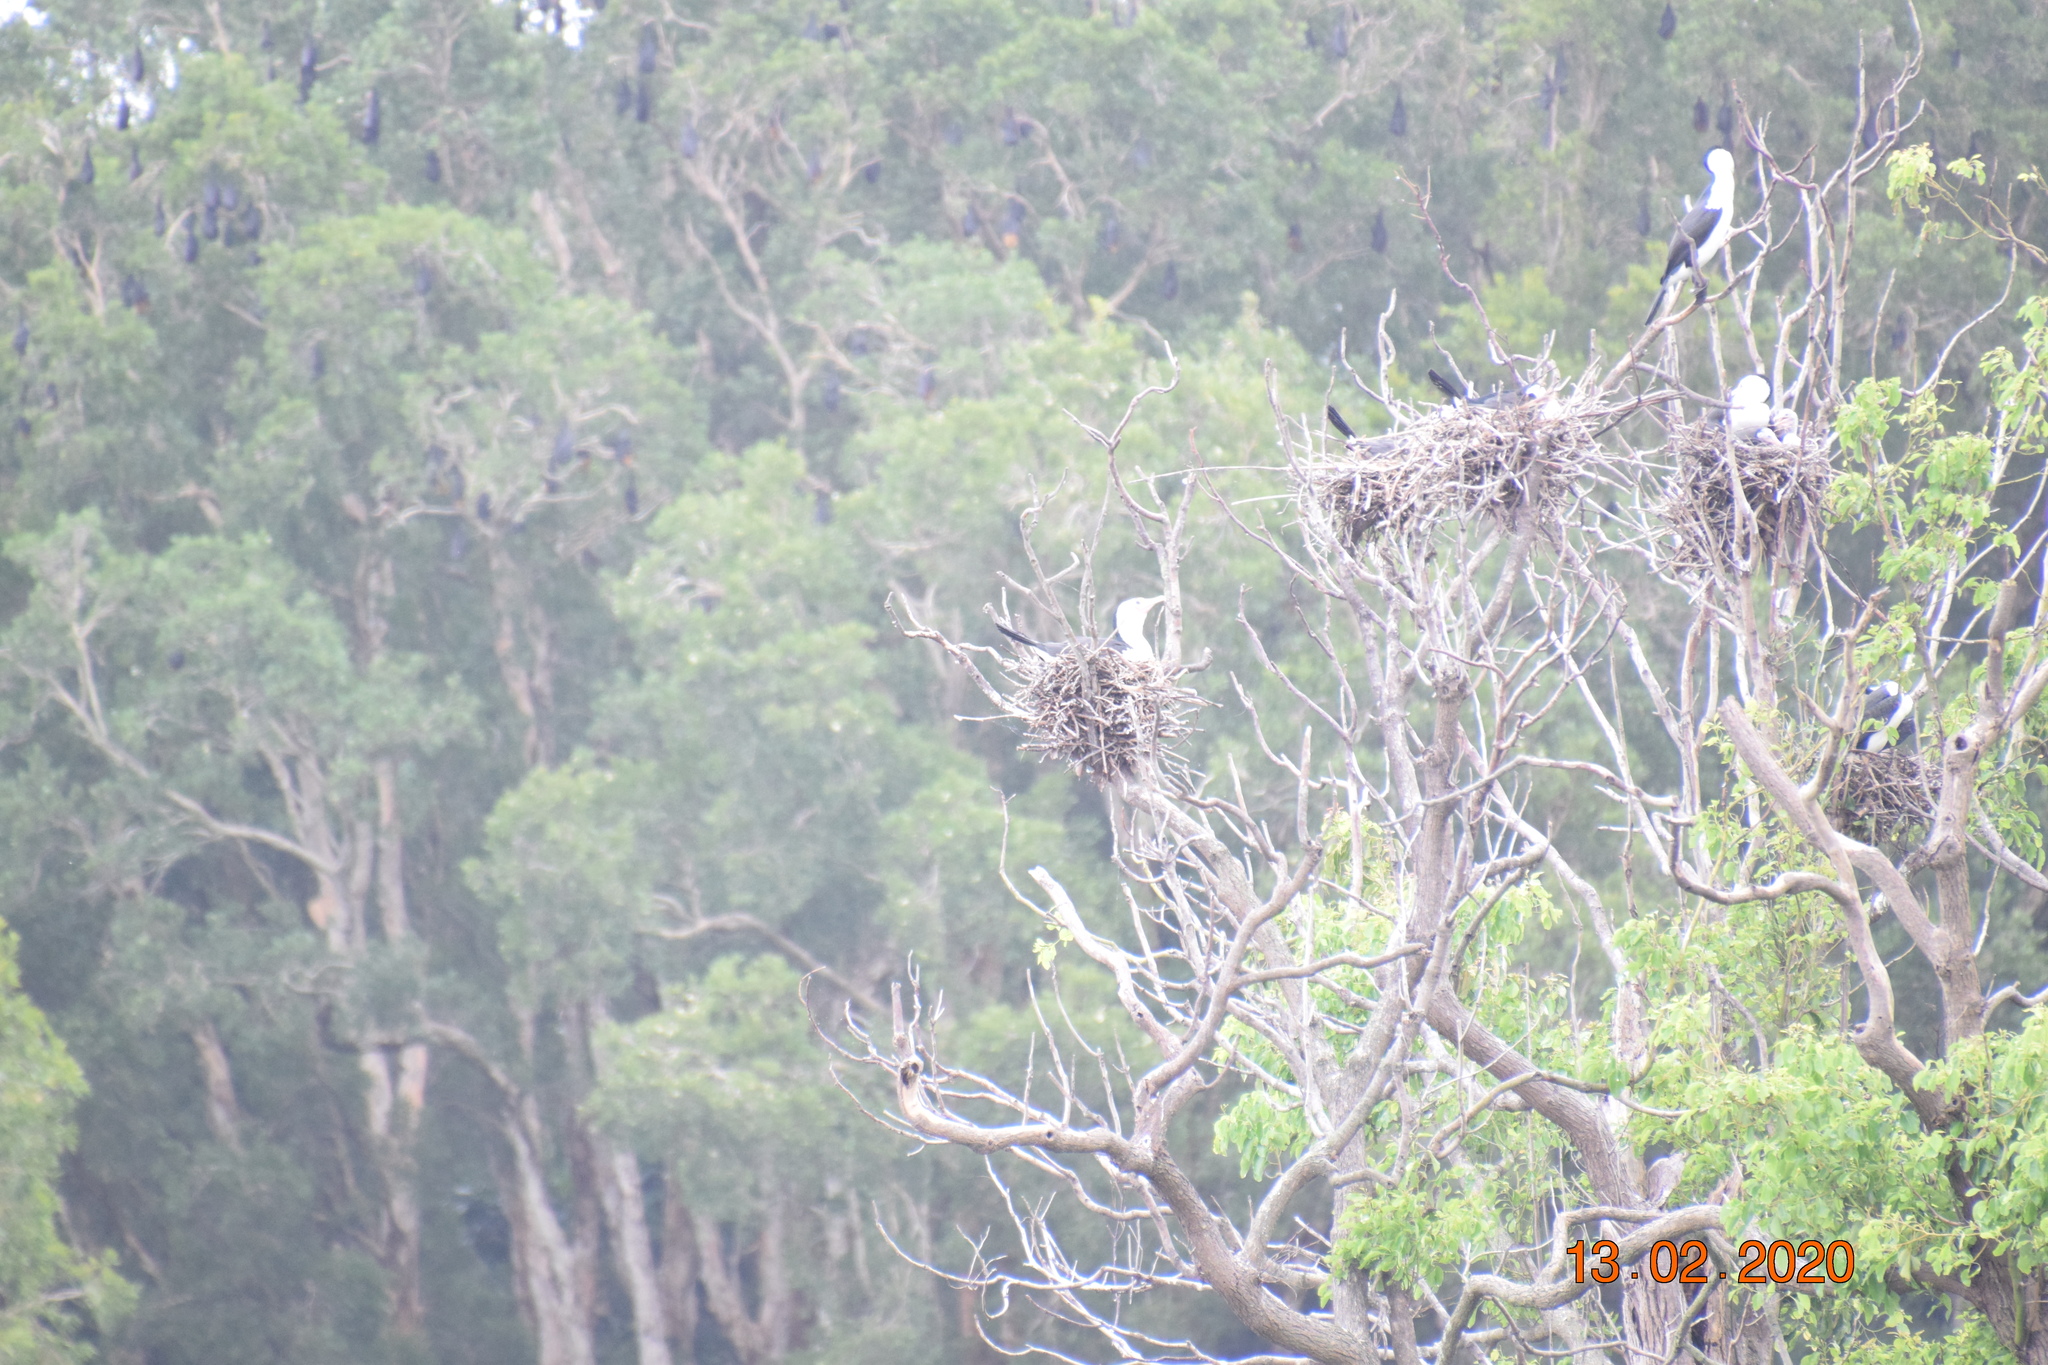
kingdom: Animalia
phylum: Chordata
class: Aves
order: Suliformes
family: Phalacrocoracidae
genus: Phalacrocorax
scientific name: Phalacrocorax varius
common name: Pied cormorant
